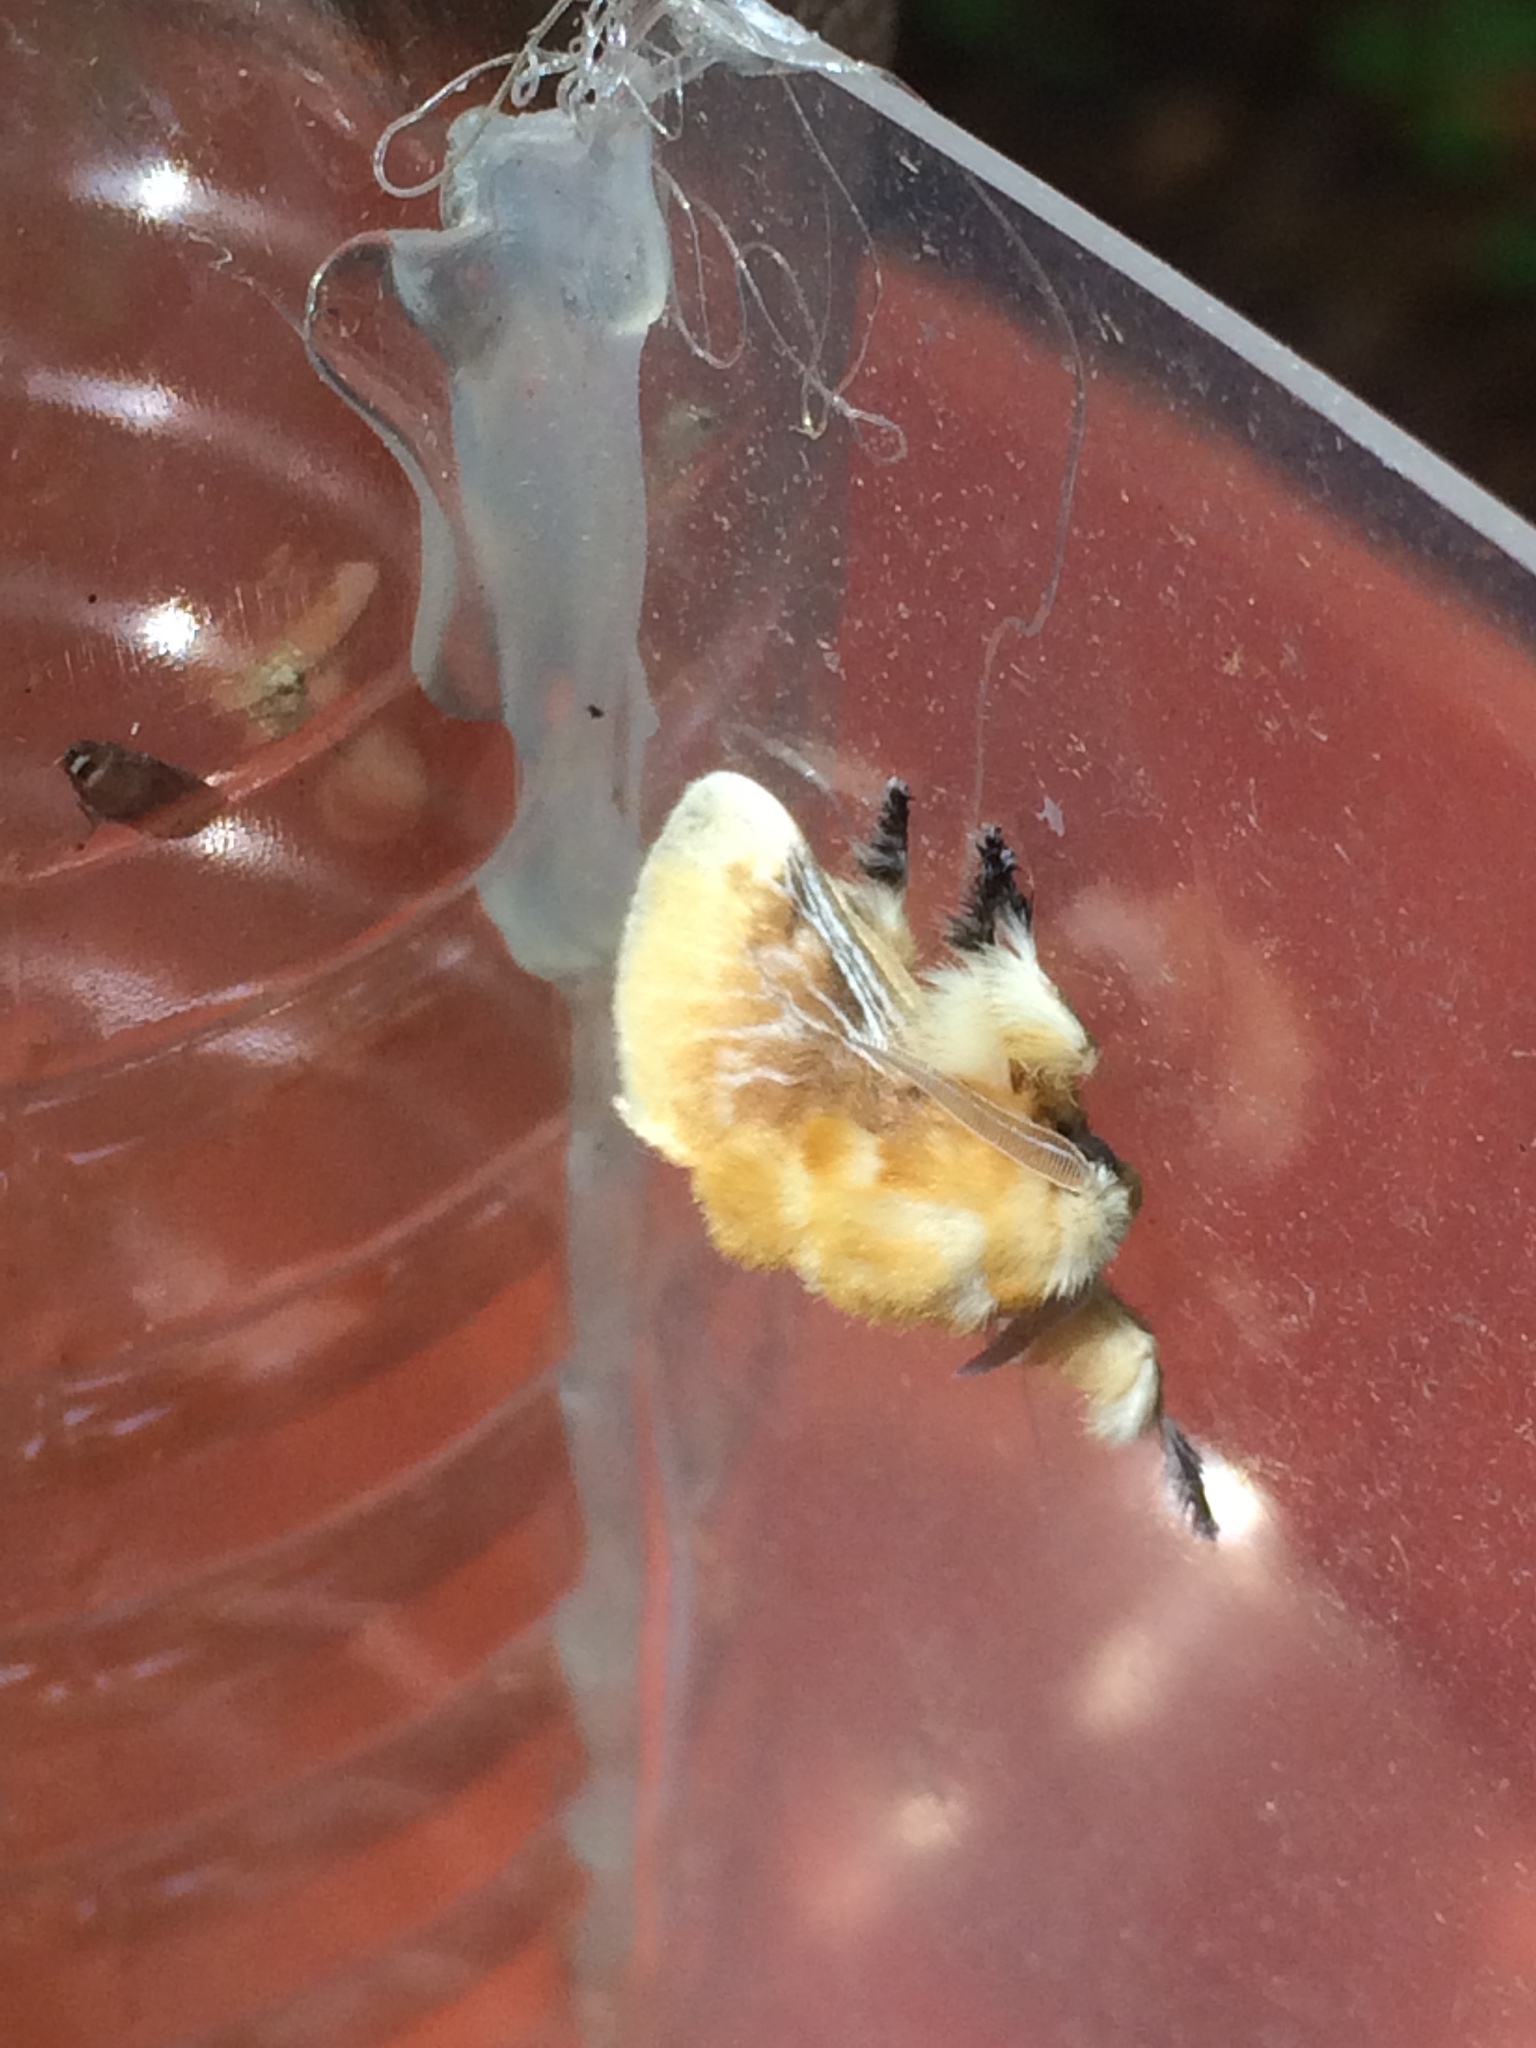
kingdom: Animalia
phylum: Arthropoda
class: Insecta
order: Lepidoptera
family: Megalopygidae
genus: Megalopyge
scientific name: Megalopyge opercularis
